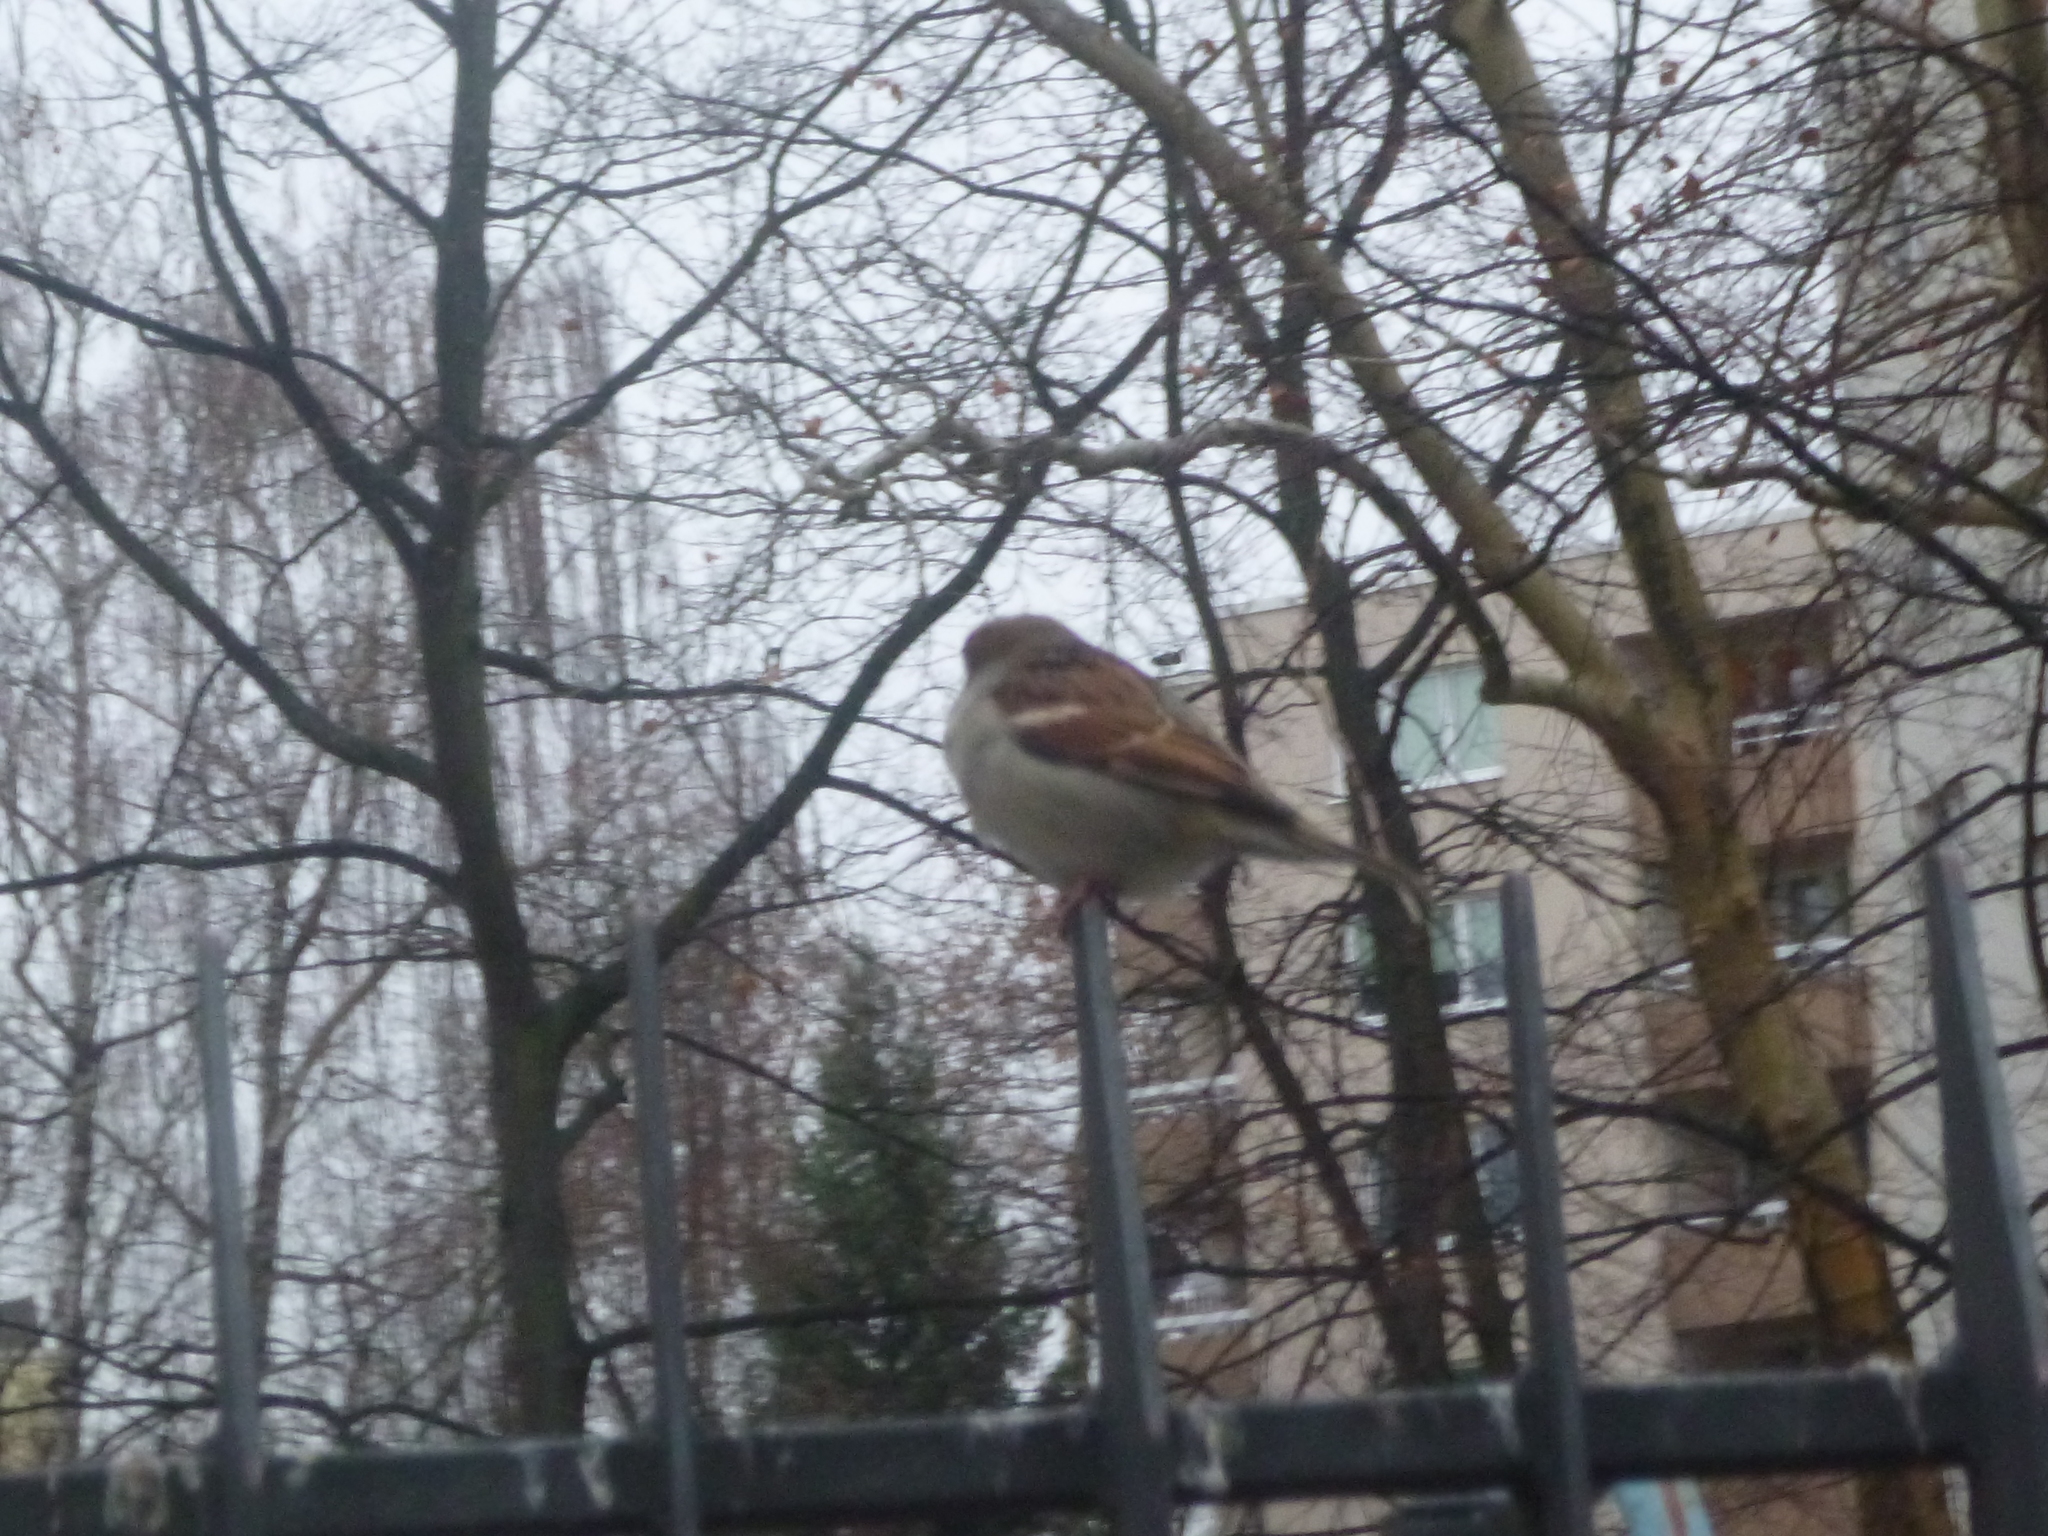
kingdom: Animalia
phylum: Chordata
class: Aves
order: Passeriformes
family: Passeridae
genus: Passer
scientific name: Passer domesticus
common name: House sparrow
